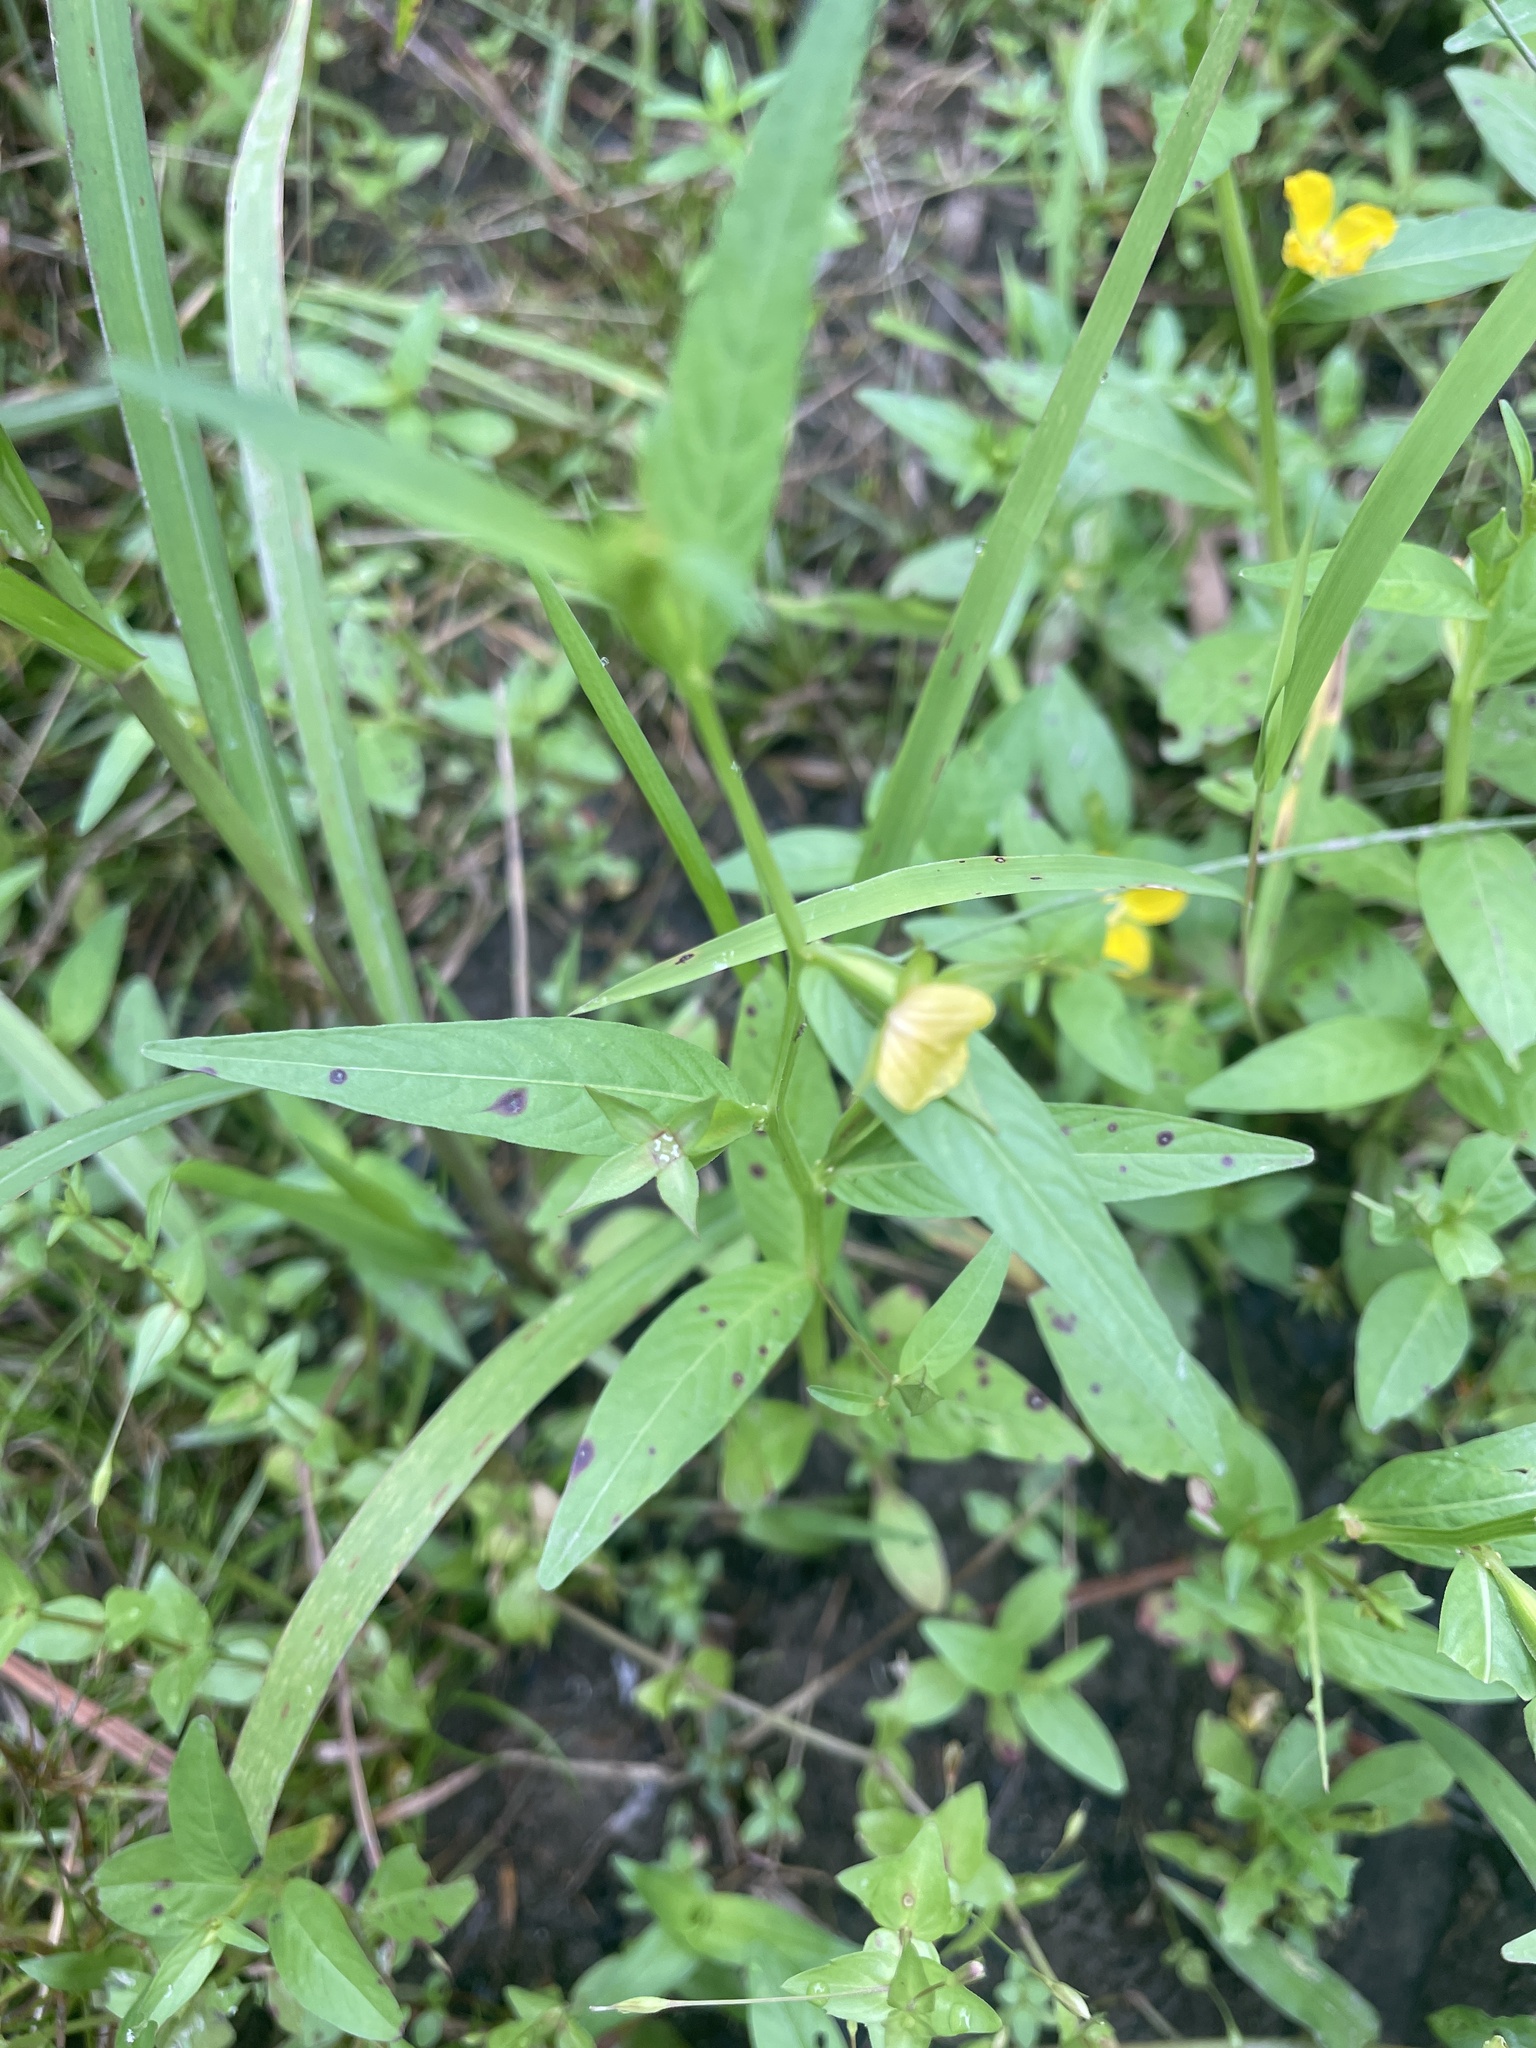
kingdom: Plantae
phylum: Tracheophyta
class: Magnoliopsida
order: Myrtales
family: Onagraceae
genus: Ludwigia
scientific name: Ludwigia decurrens
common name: Winged water-primrose
